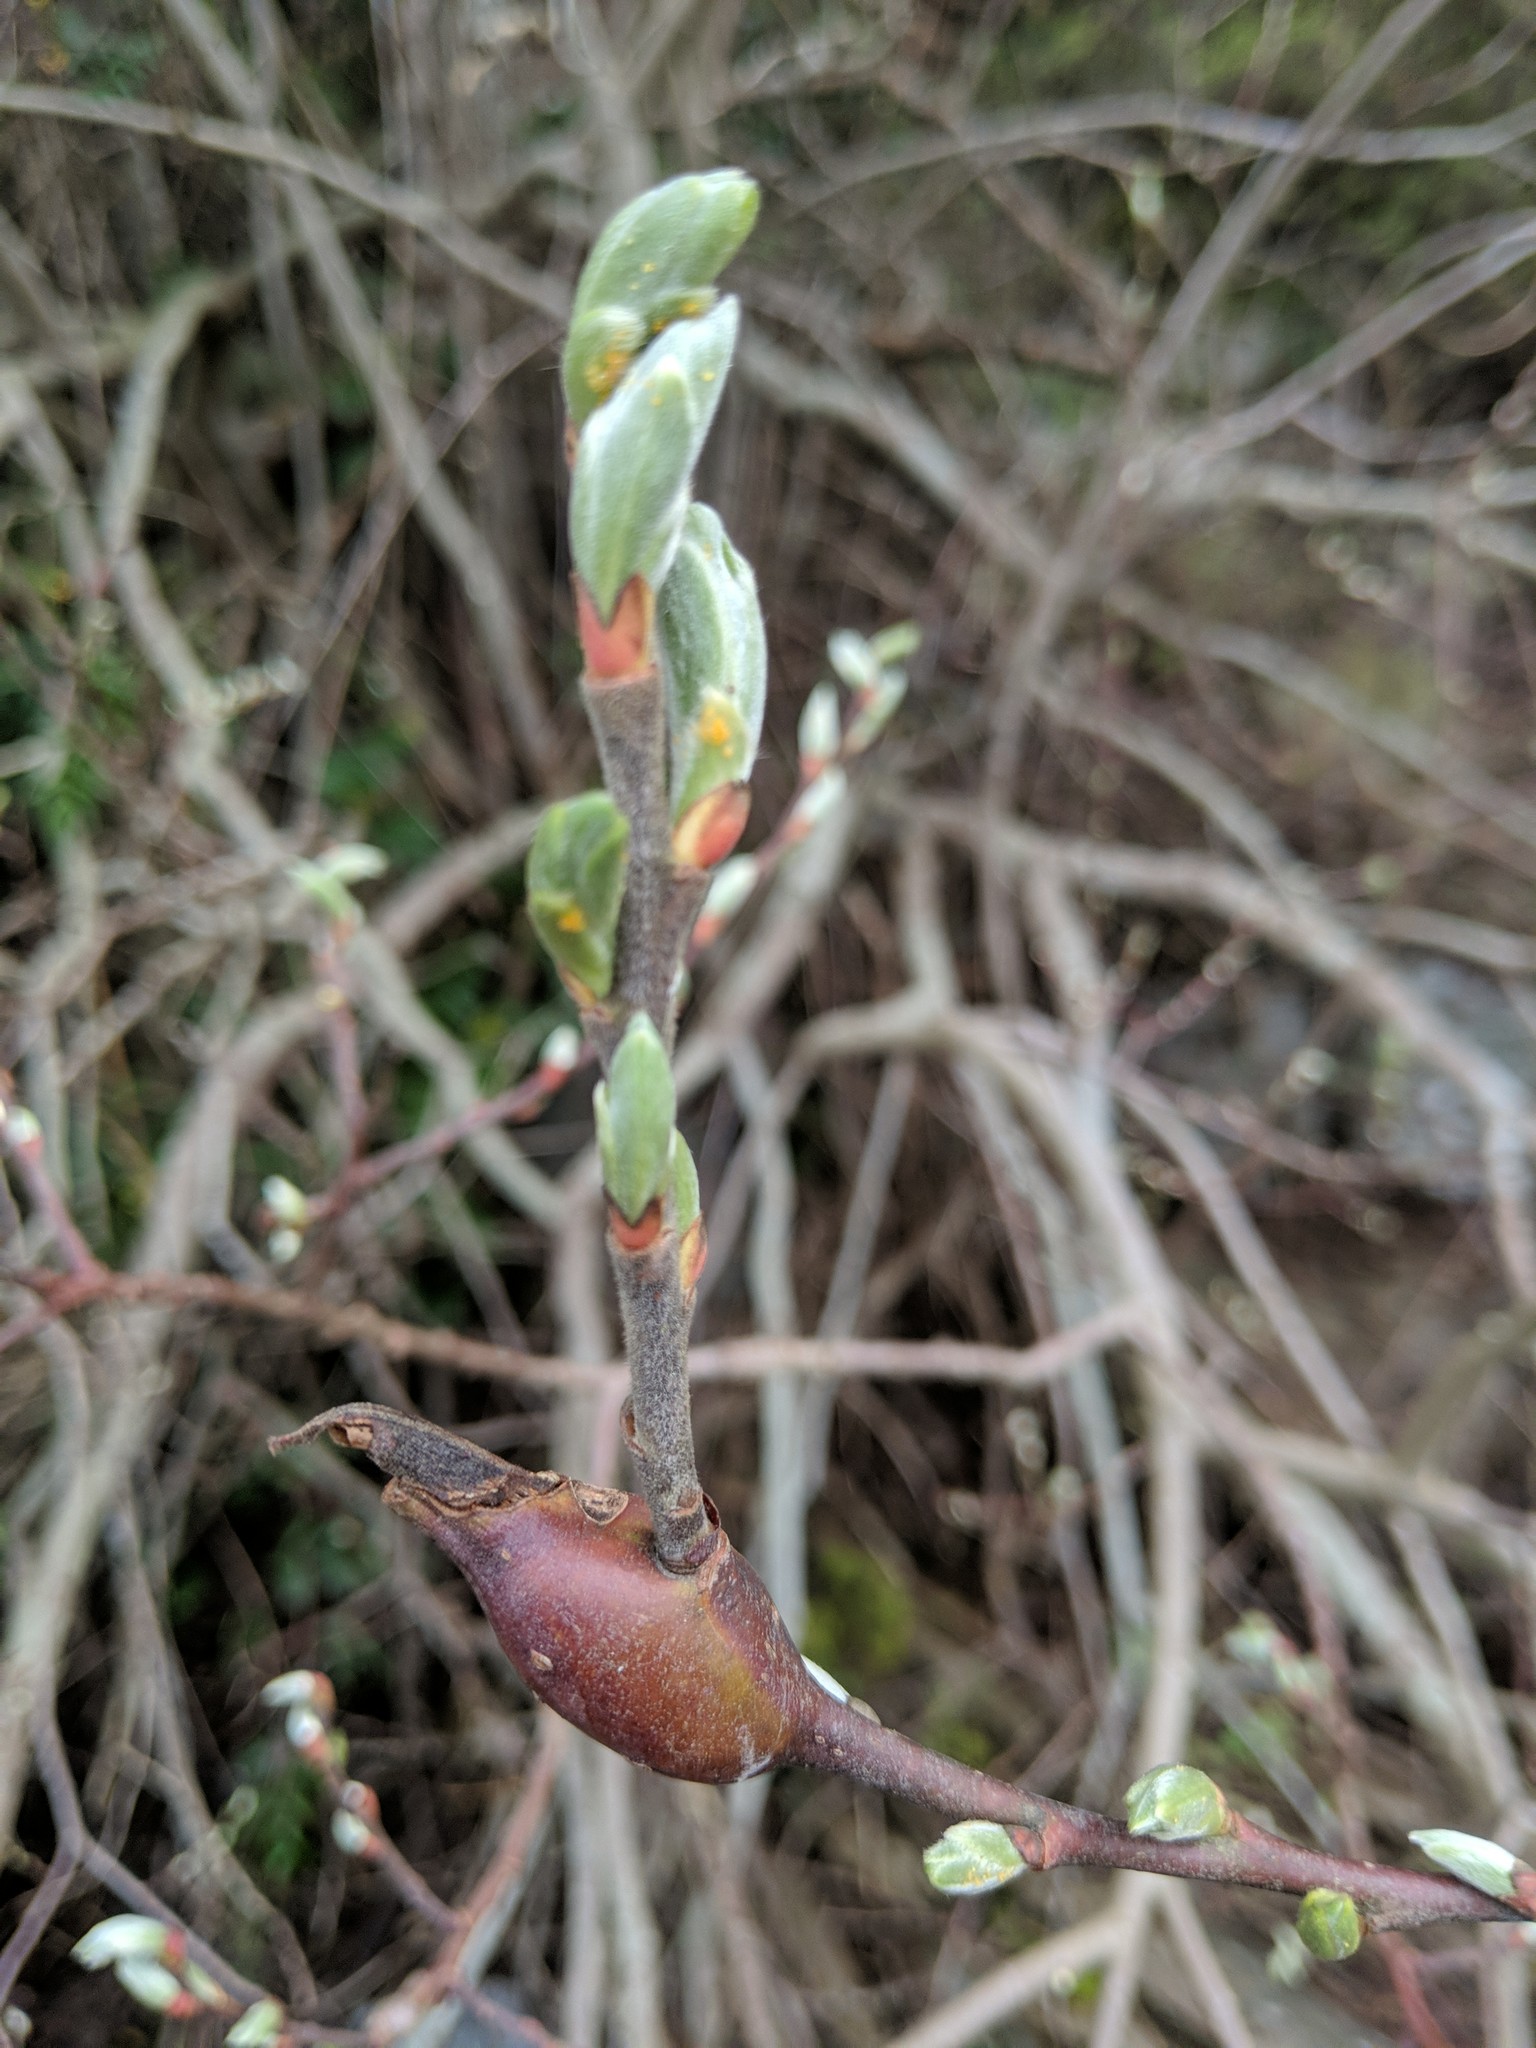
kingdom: Animalia
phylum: Arthropoda
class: Insecta
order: Diptera
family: Cecidomyiidae
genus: Thecodiplosis
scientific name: Thecodiplosis pinirigidae
